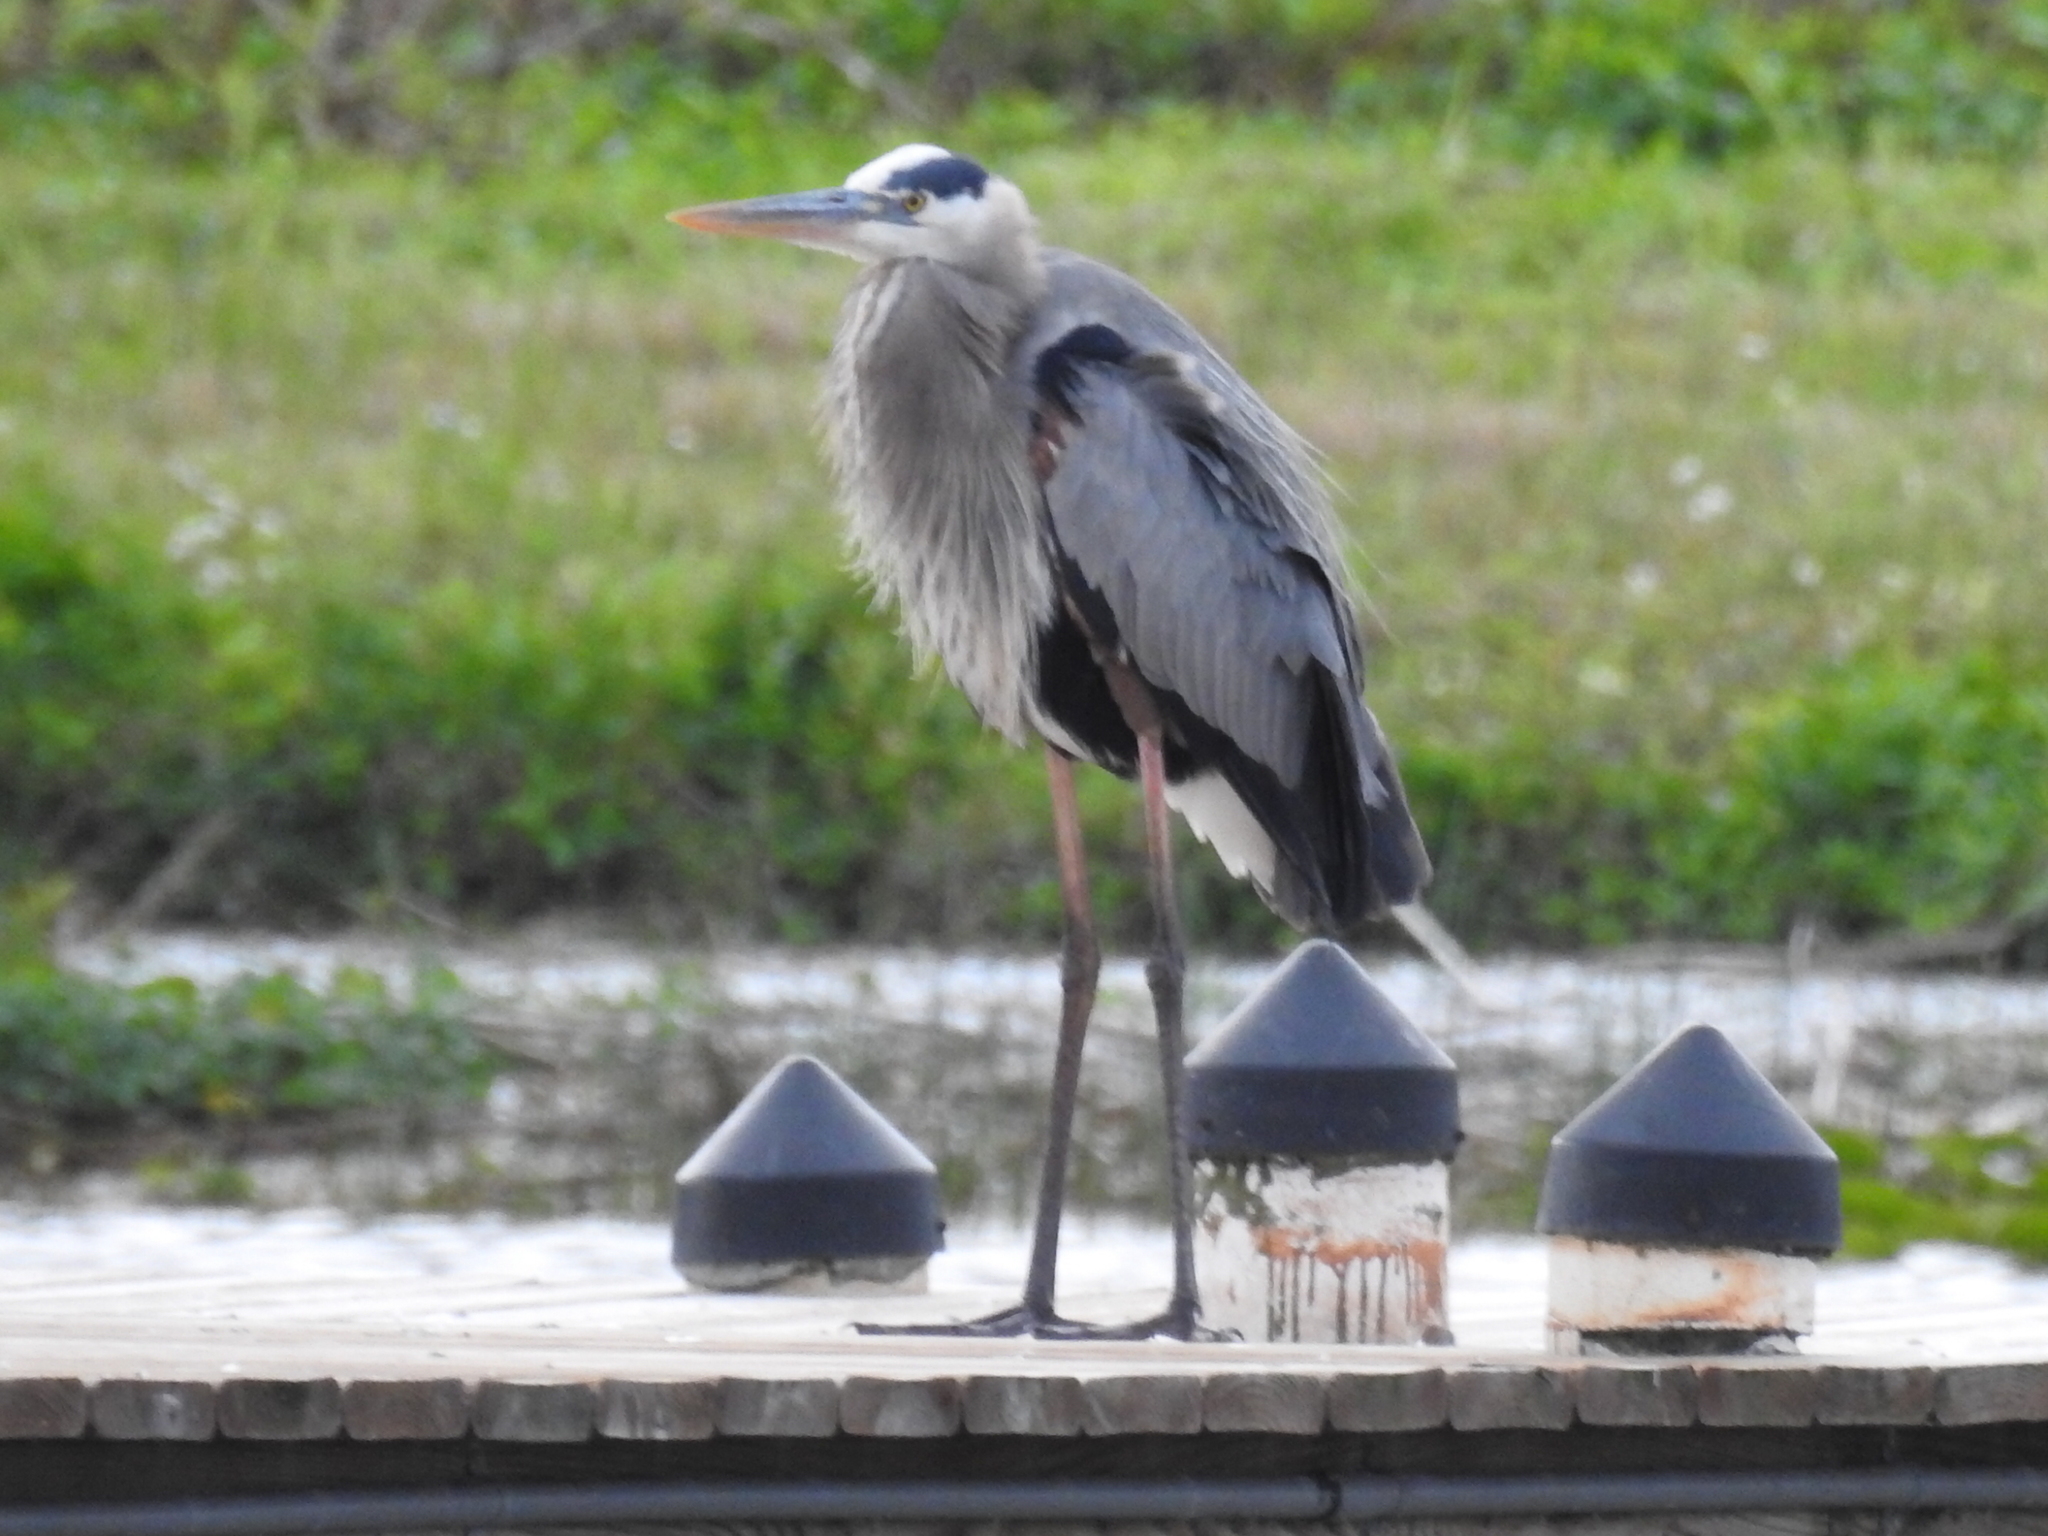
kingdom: Animalia
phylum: Chordata
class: Aves
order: Pelecaniformes
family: Ardeidae
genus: Ardea
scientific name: Ardea herodias
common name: Great blue heron
